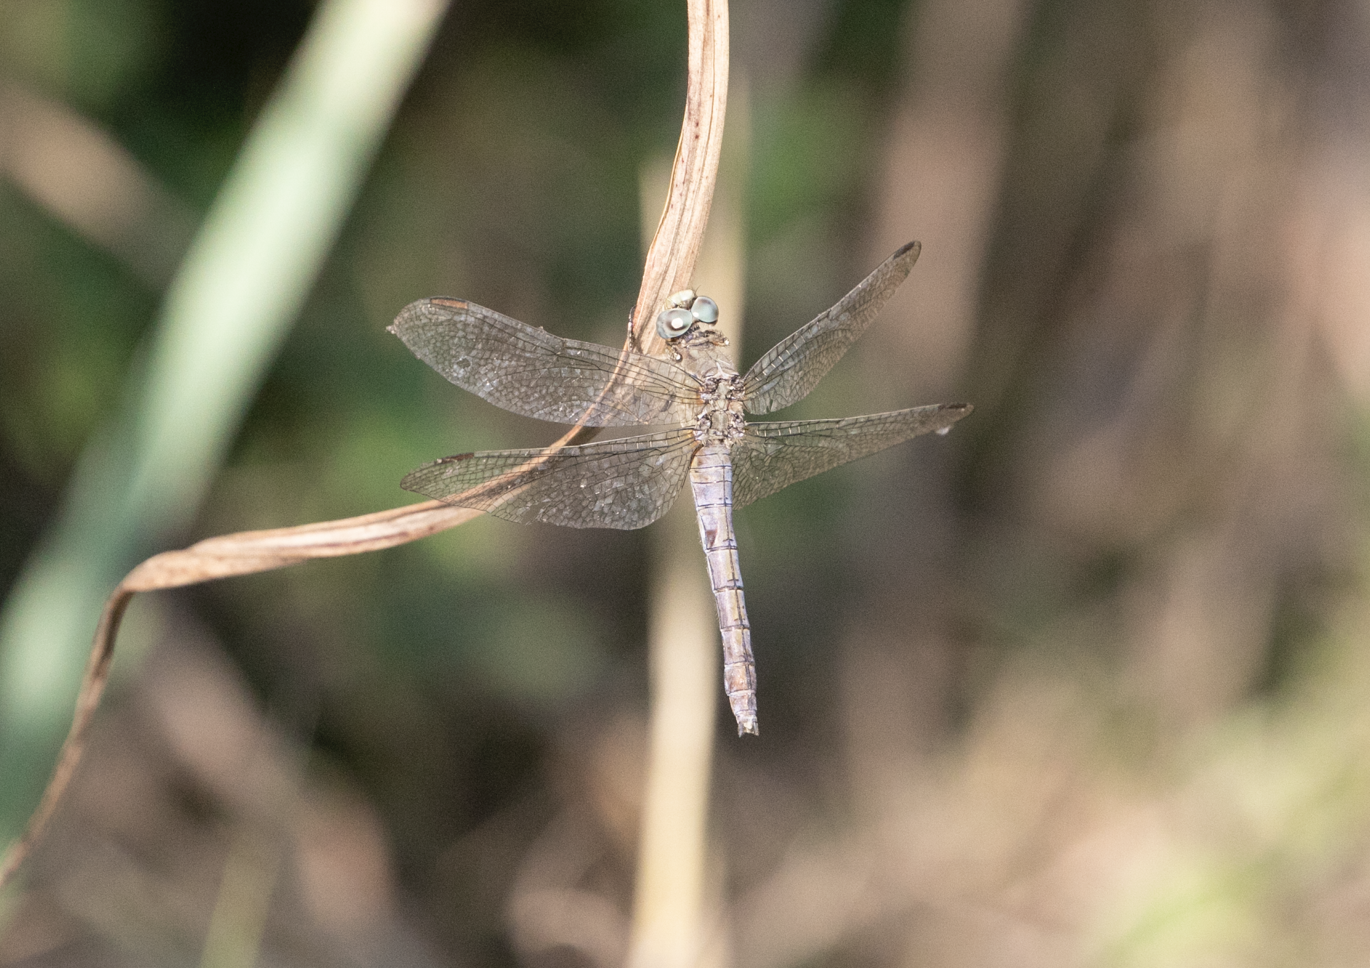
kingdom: Animalia
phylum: Arthropoda
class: Insecta
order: Odonata
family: Libellulidae
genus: Orthetrum
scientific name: Orthetrum coerulescens
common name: Keeled skimmer
